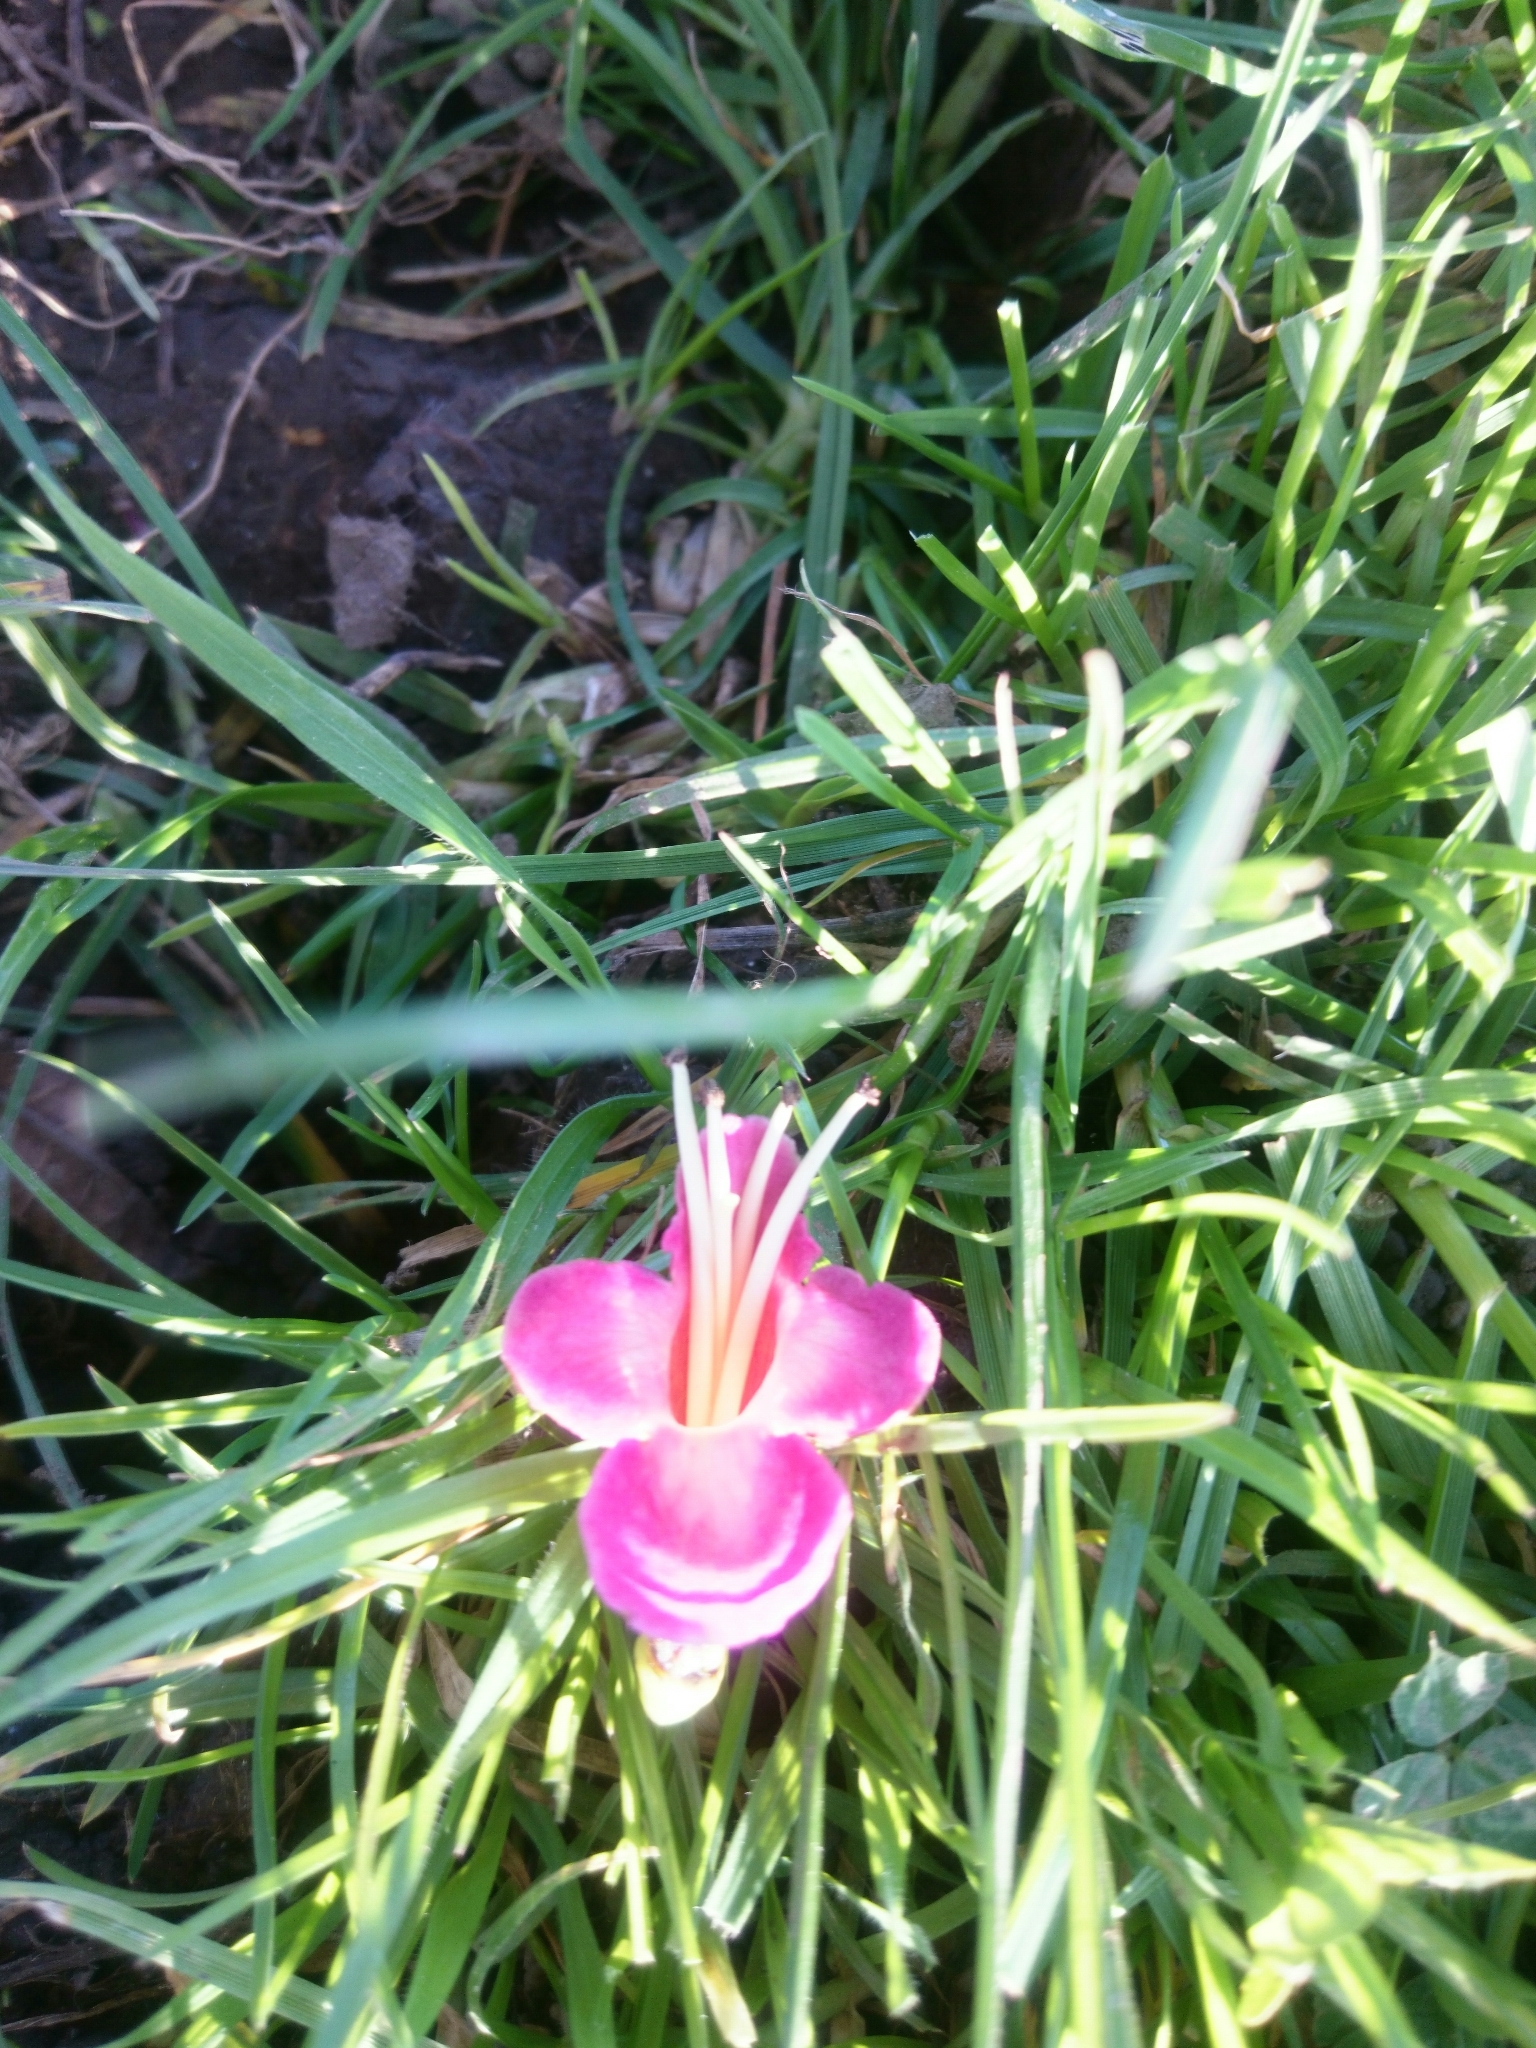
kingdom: Plantae
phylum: Tracheophyta
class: Magnoliopsida
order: Lamiales
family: Lamiaceae
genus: Vitex
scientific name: Vitex lucens
